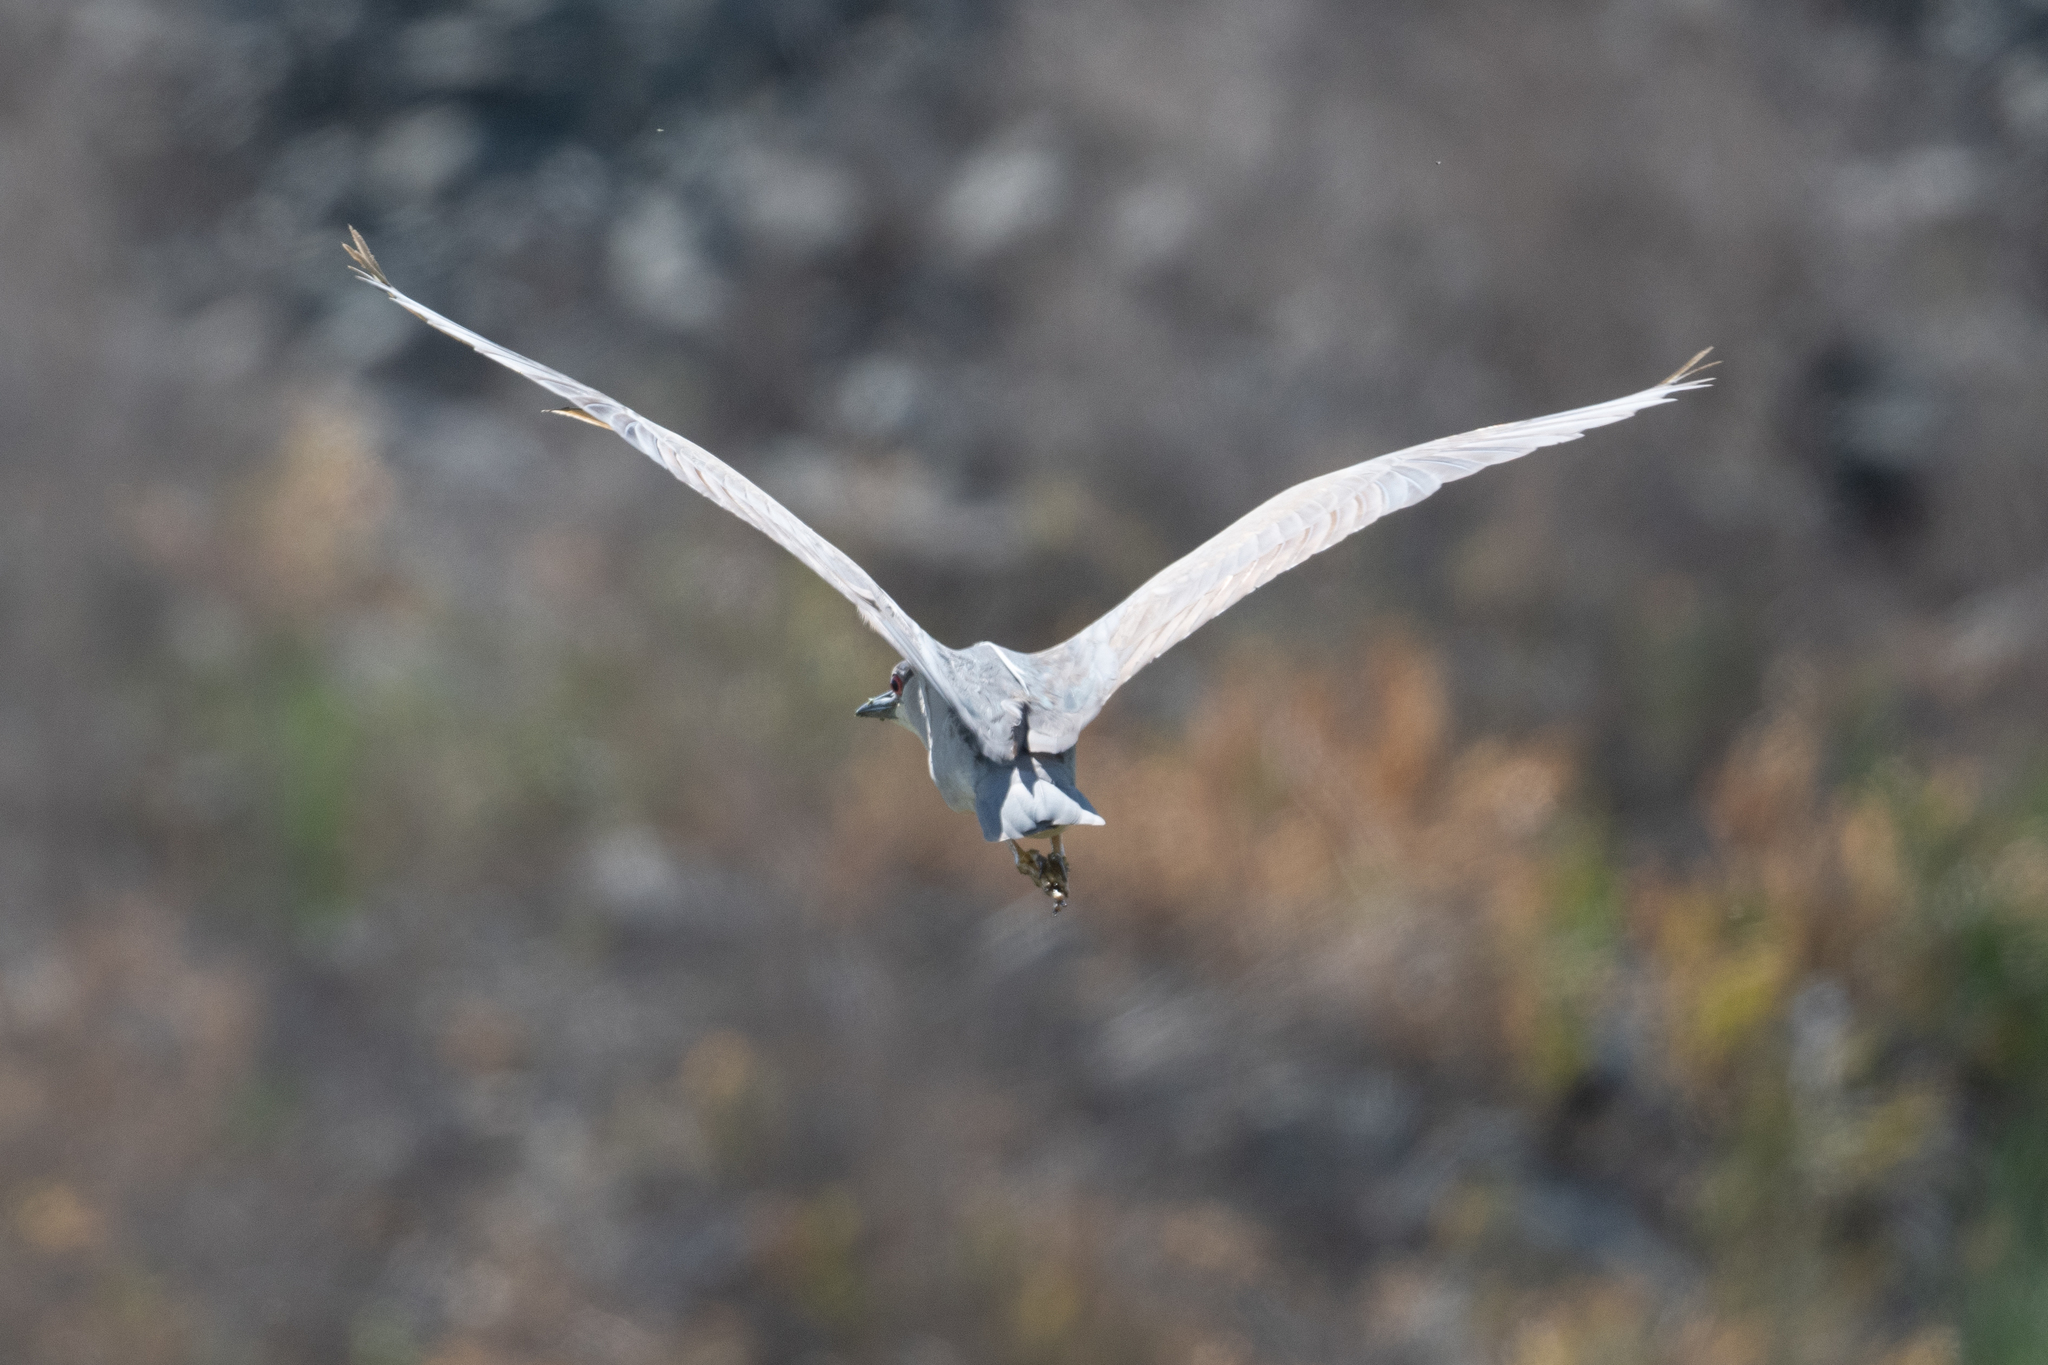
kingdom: Animalia
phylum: Chordata
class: Aves
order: Pelecaniformes
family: Ardeidae
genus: Nycticorax
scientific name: Nycticorax nycticorax
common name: Black-crowned night heron
